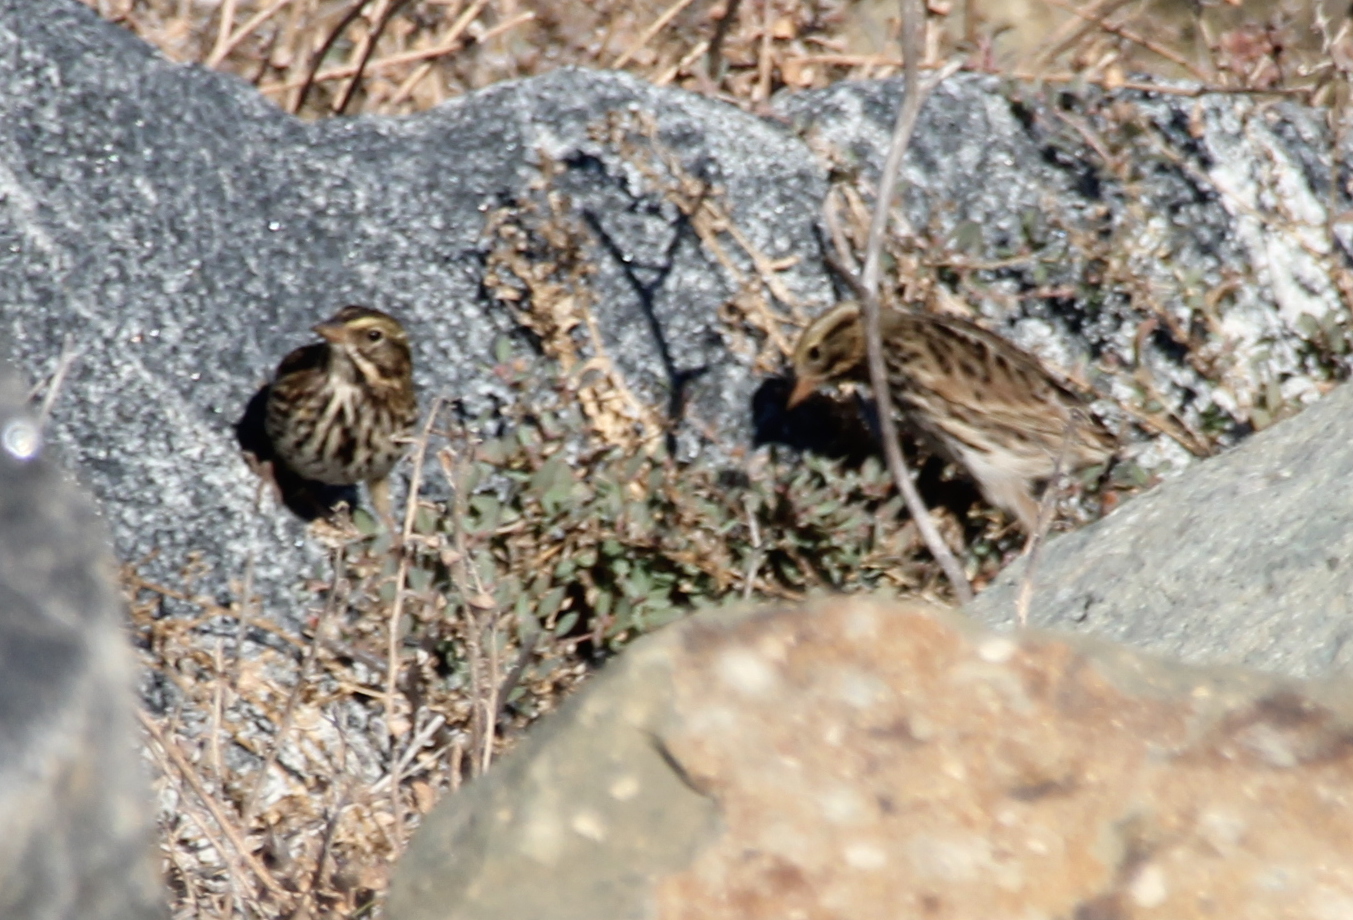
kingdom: Animalia
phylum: Chordata
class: Aves
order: Passeriformes
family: Passerellidae
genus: Passerculus
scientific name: Passerculus sandwichensis
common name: Savannah sparrow
